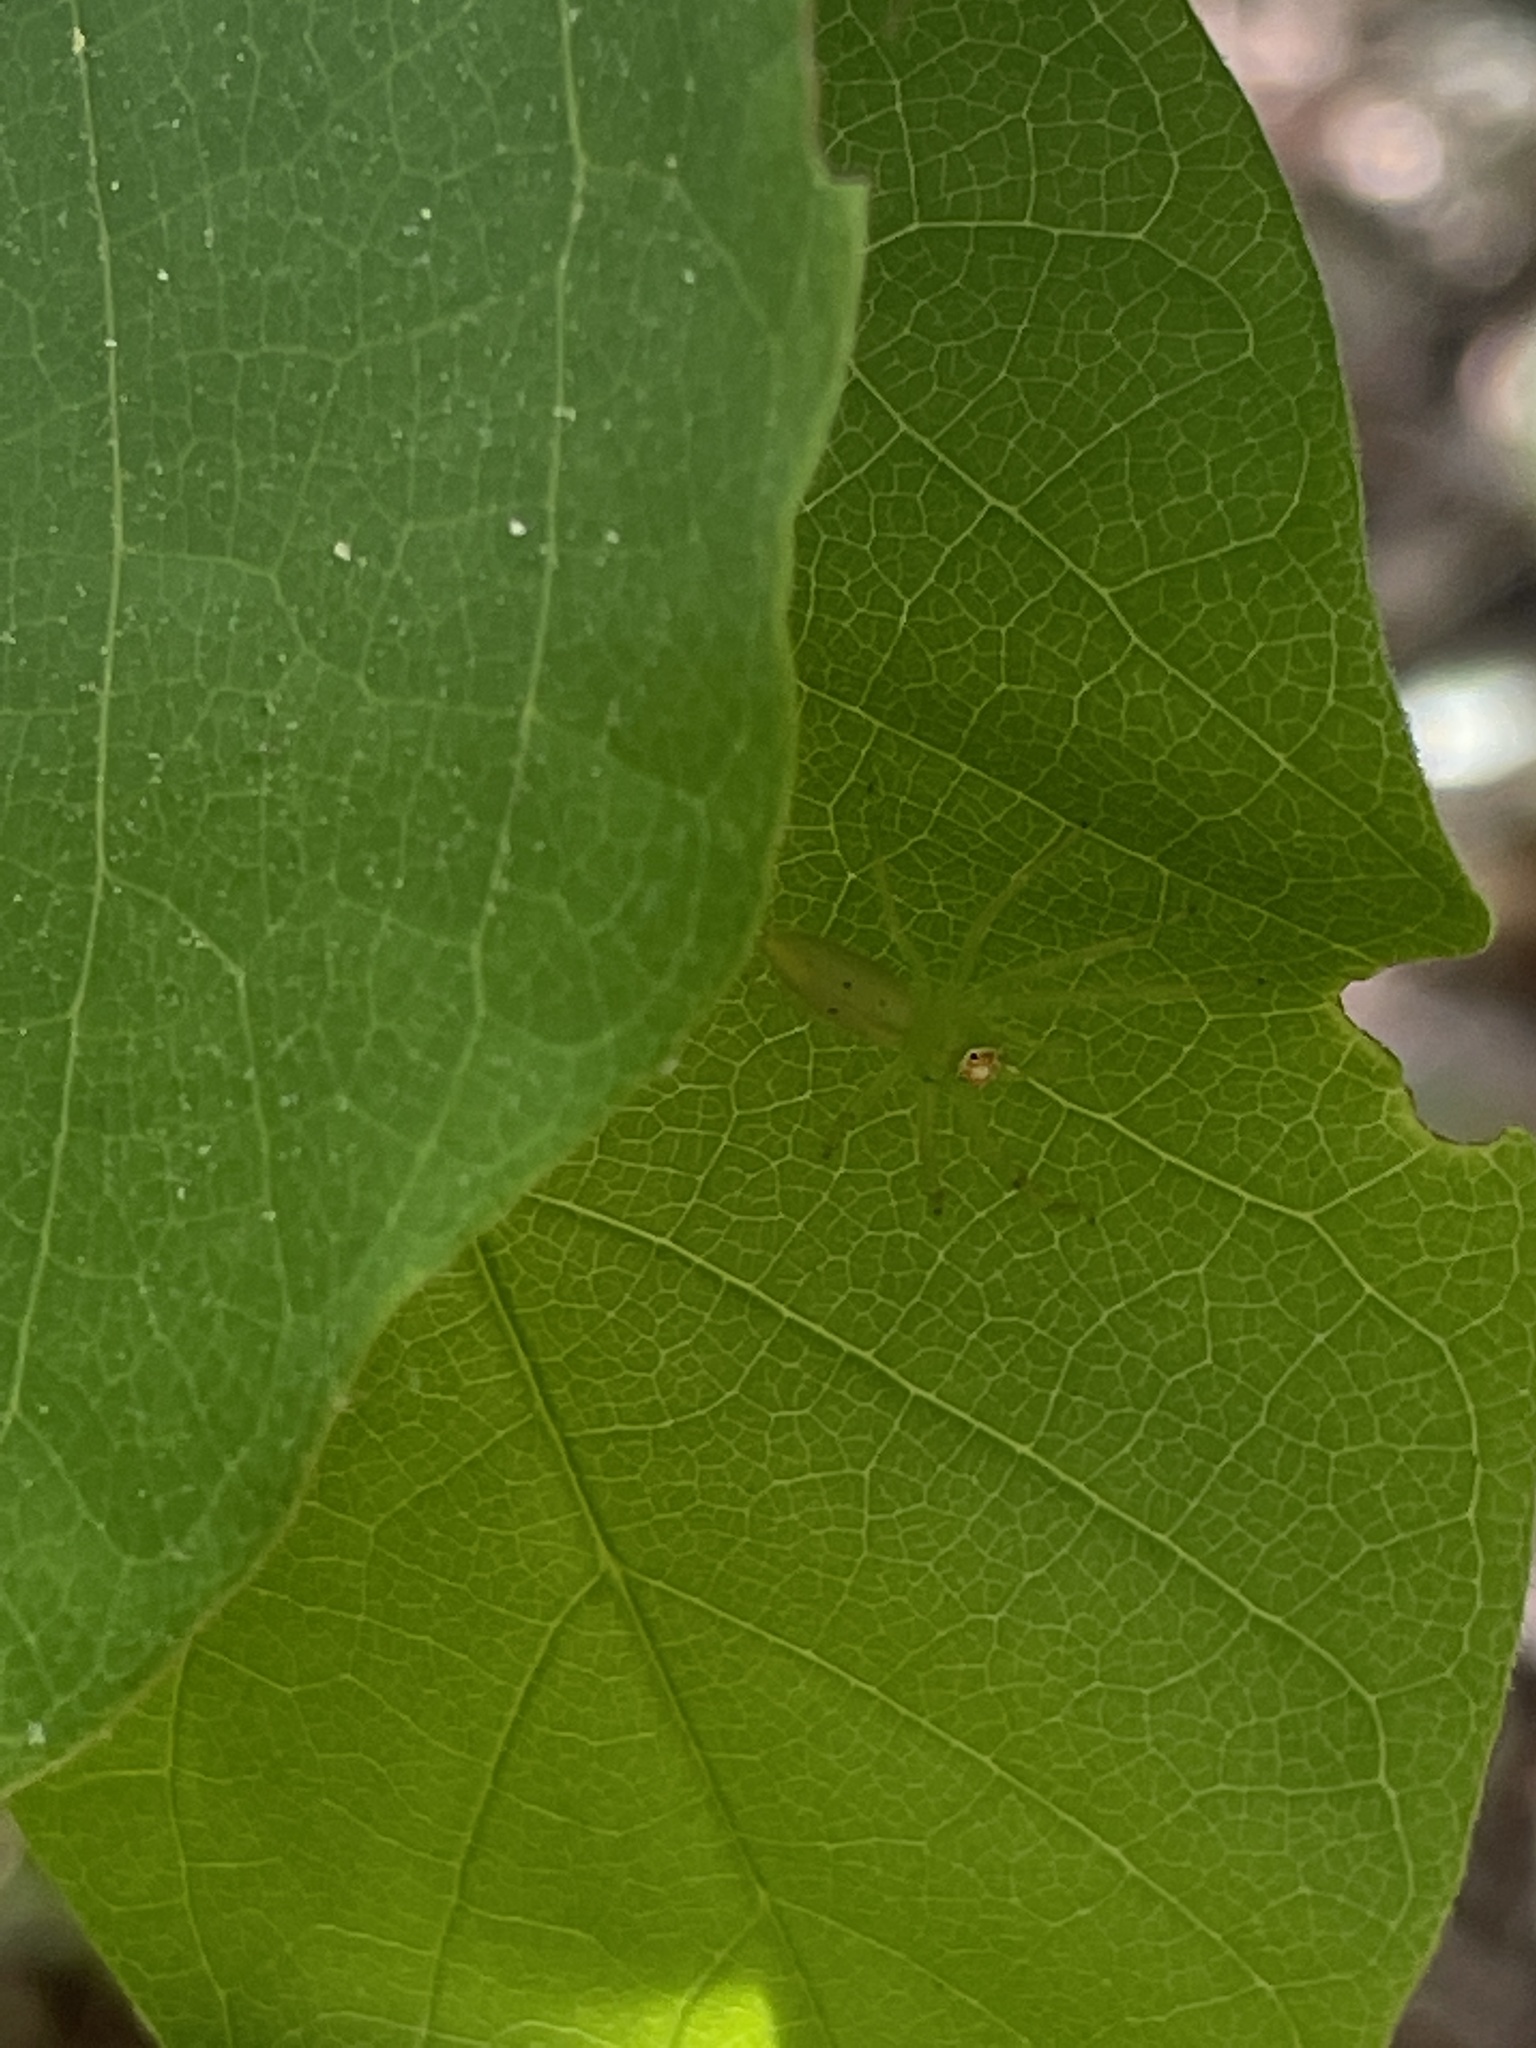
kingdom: Animalia
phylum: Arthropoda
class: Arachnida
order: Araneae
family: Salticidae
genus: Lyssomanes
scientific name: Lyssomanes viridis
